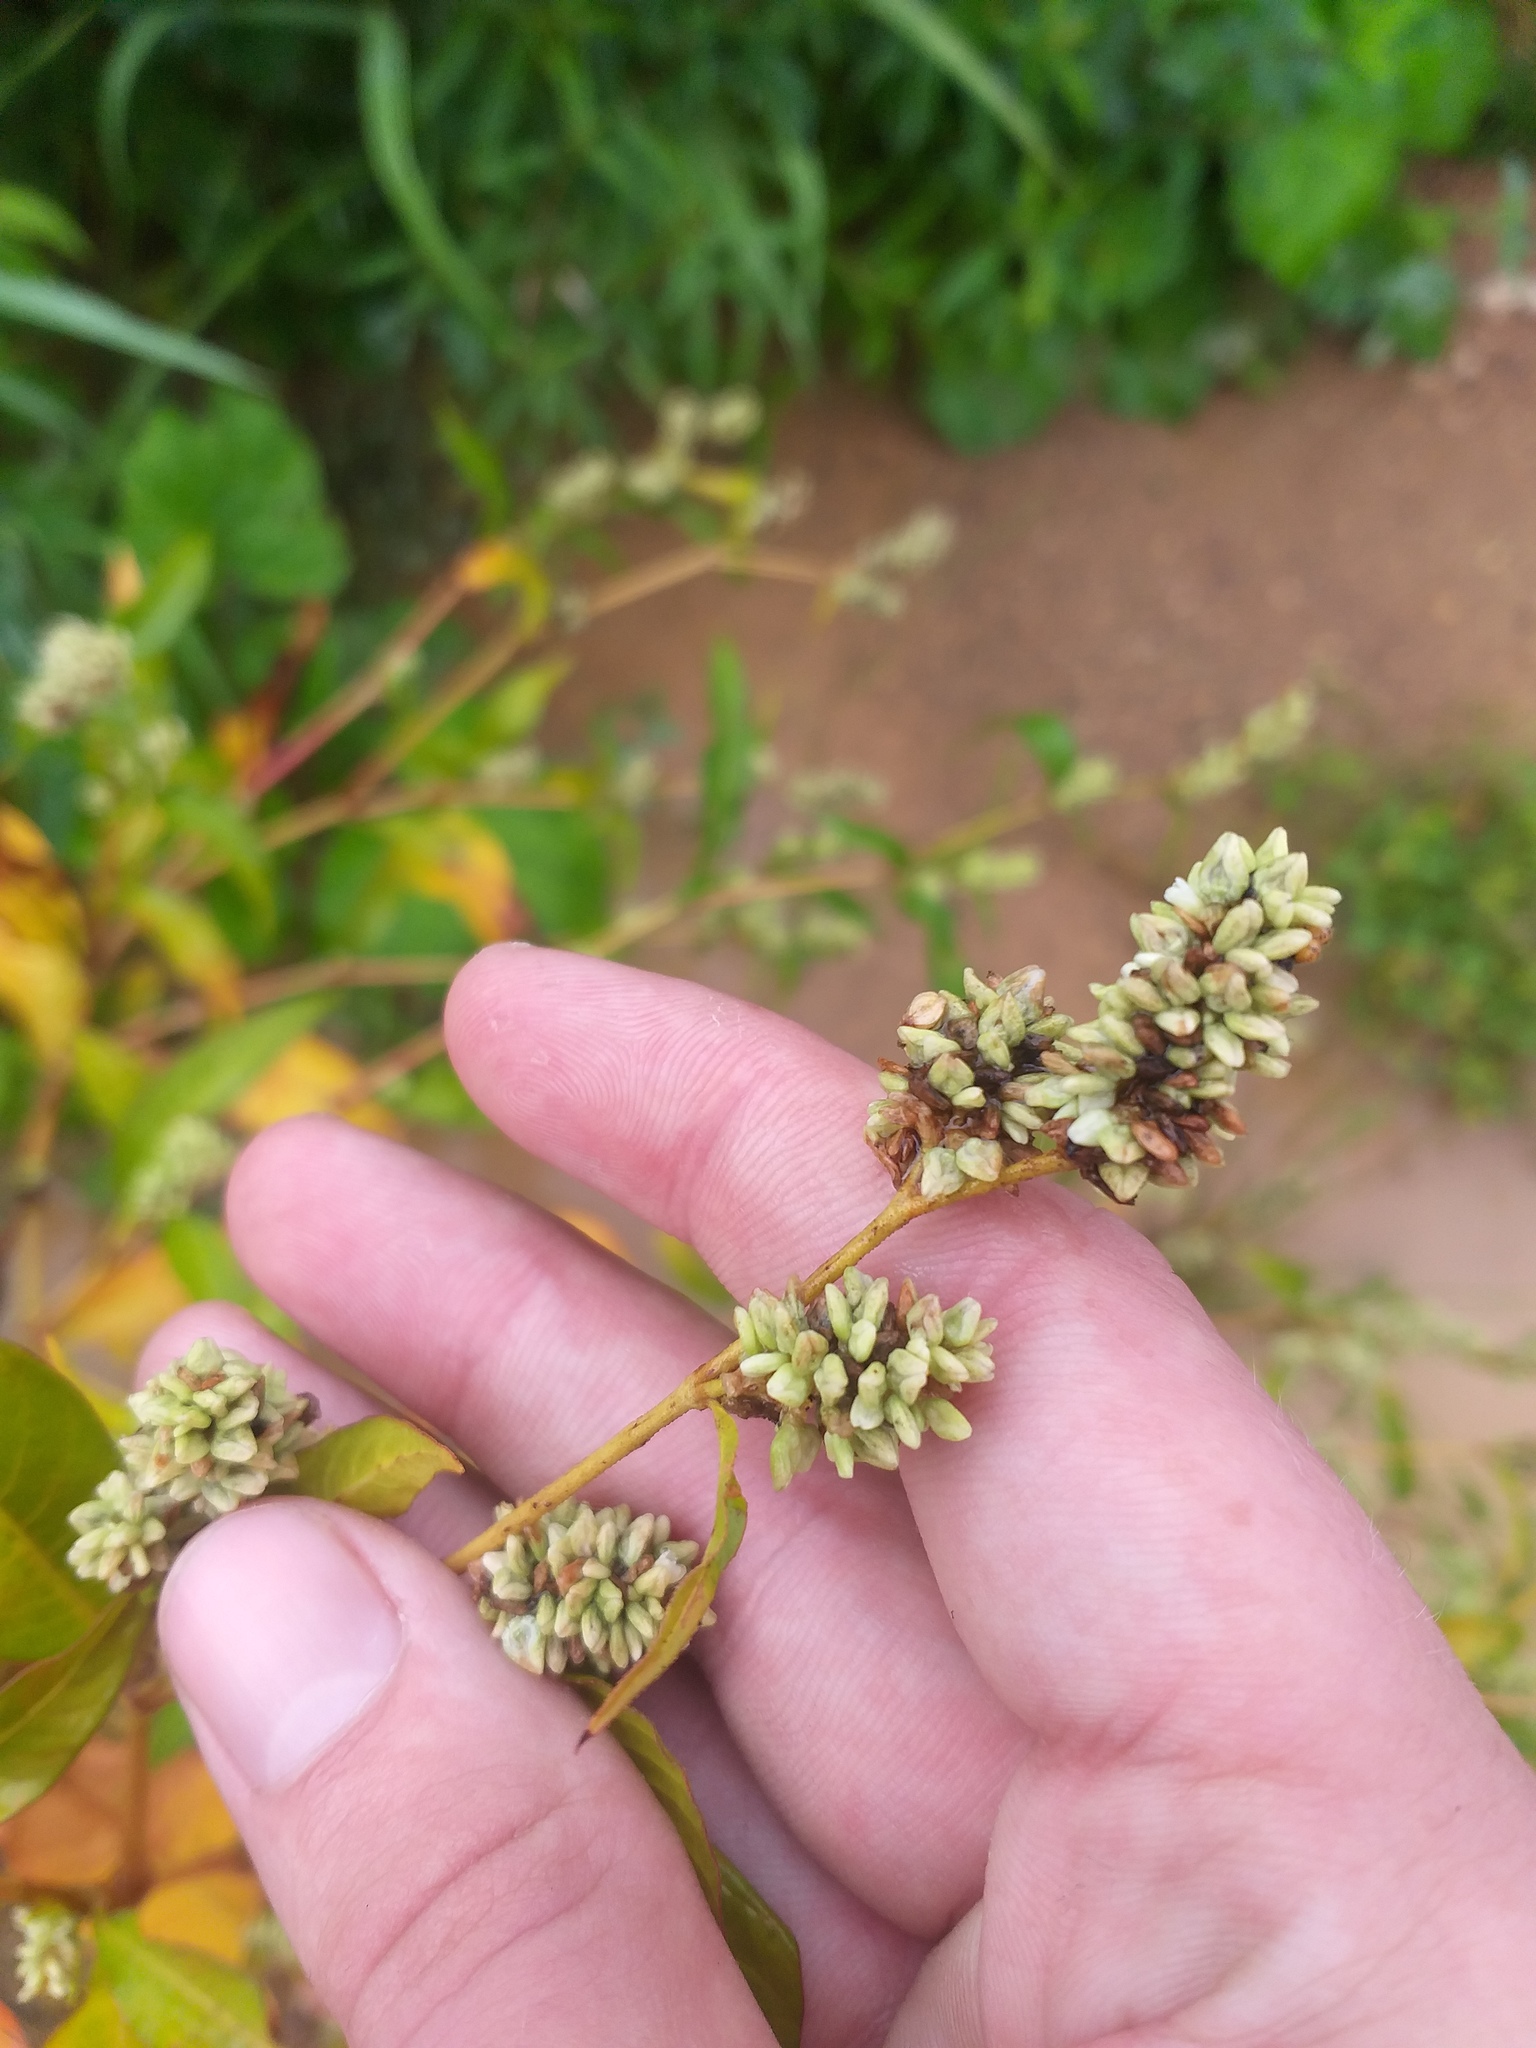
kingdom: Plantae
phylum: Tracheophyta
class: Magnoliopsida
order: Caryophyllales
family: Polygonaceae
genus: Persicaria
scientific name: Persicaria lapathifolia
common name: Curlytop knotweed
